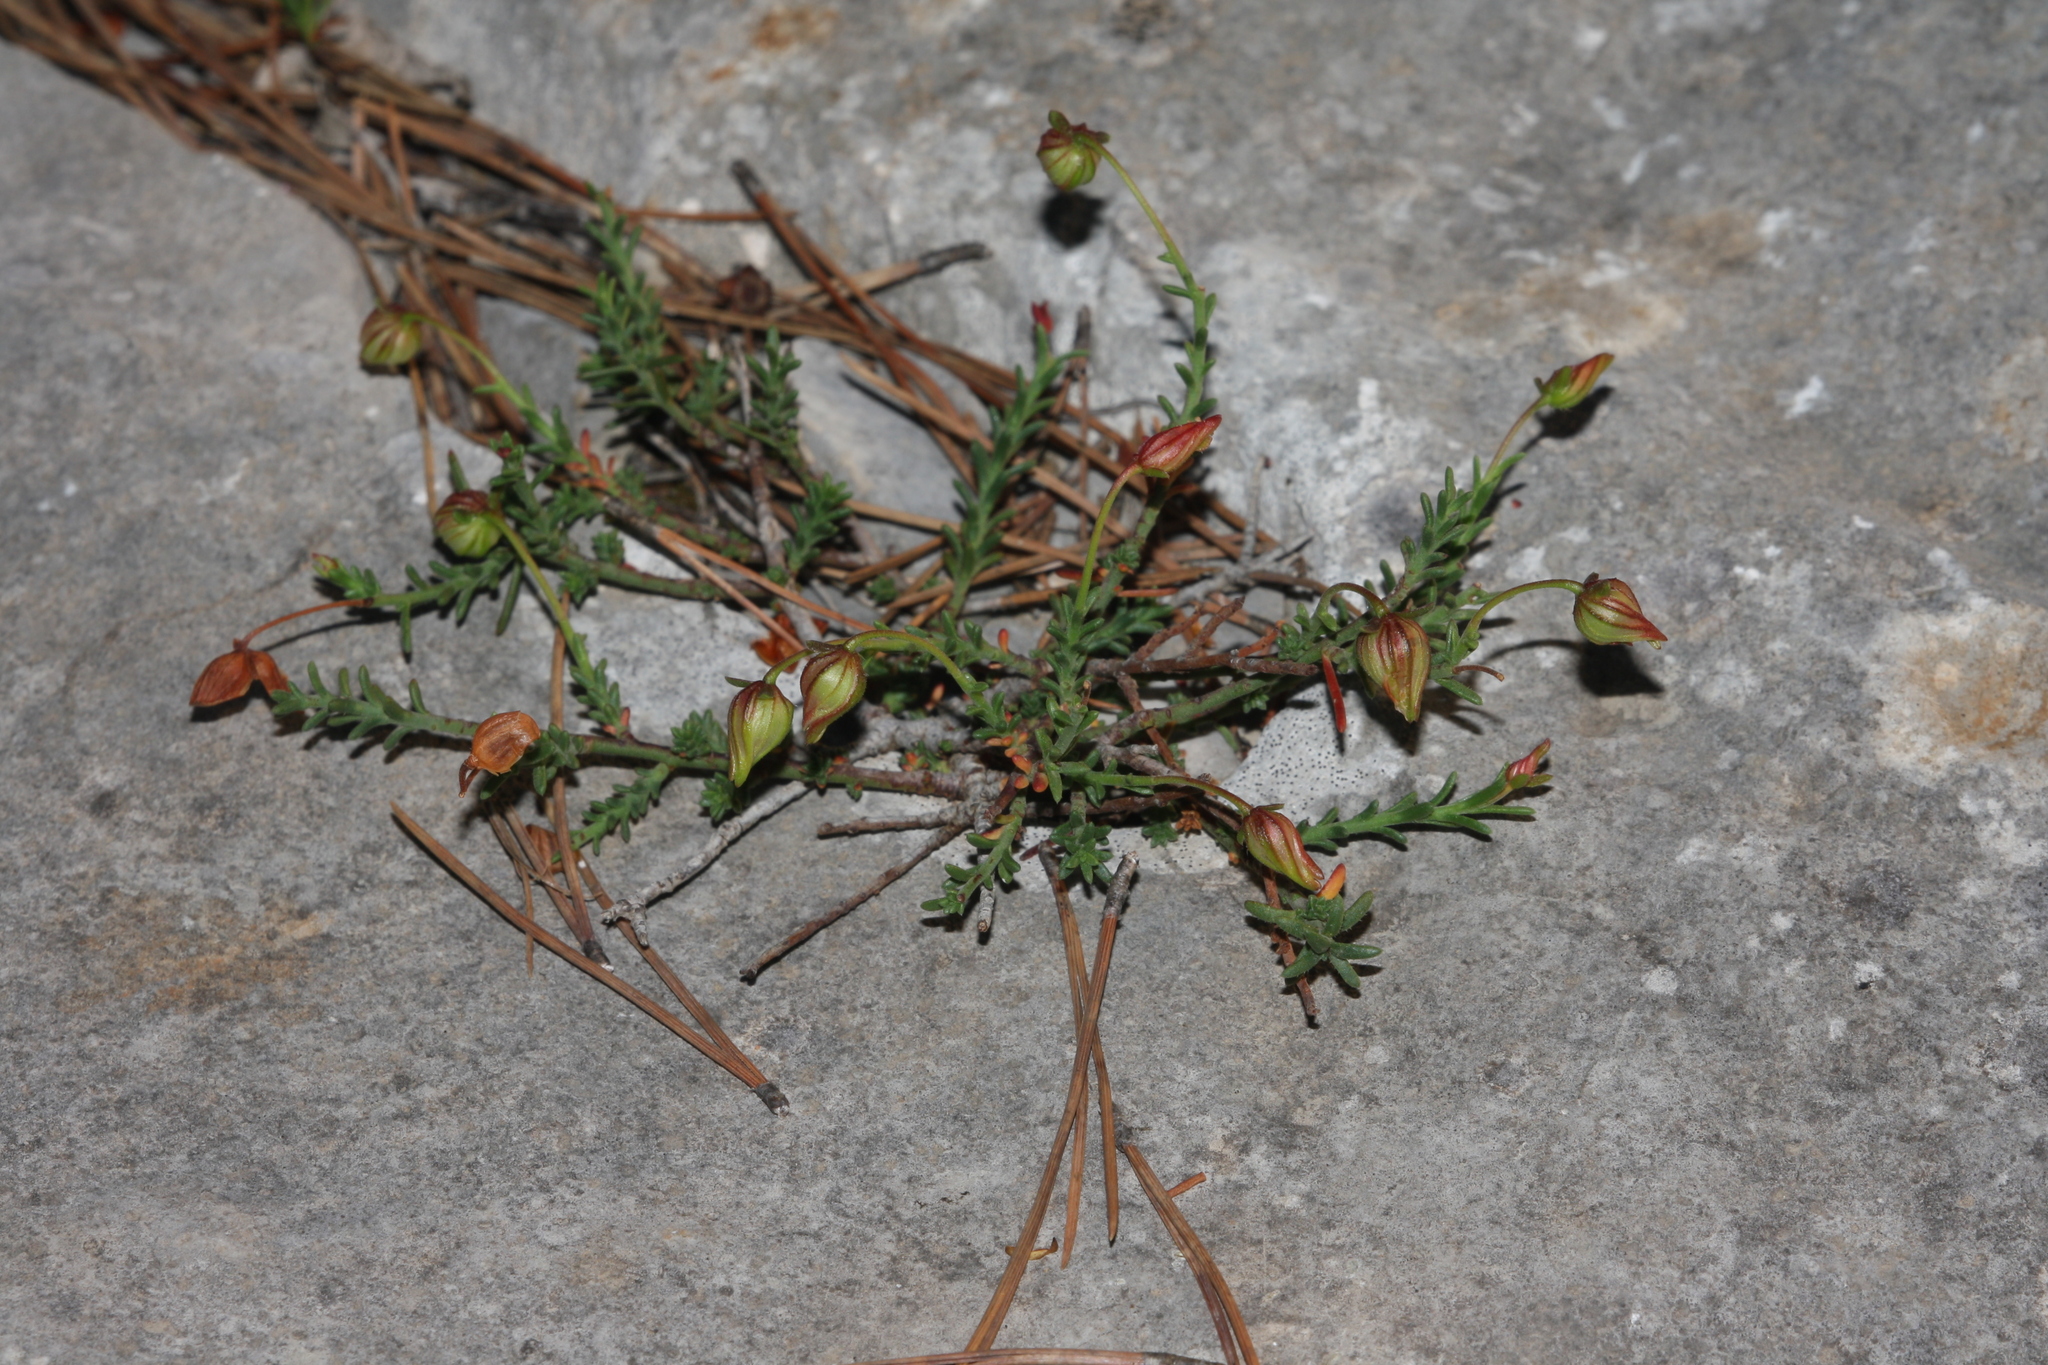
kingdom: Plantae
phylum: Tracheophyta
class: Magnoliopsida
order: Malvales
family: Cistaceae
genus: Fumana
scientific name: Fumana ericifolia
